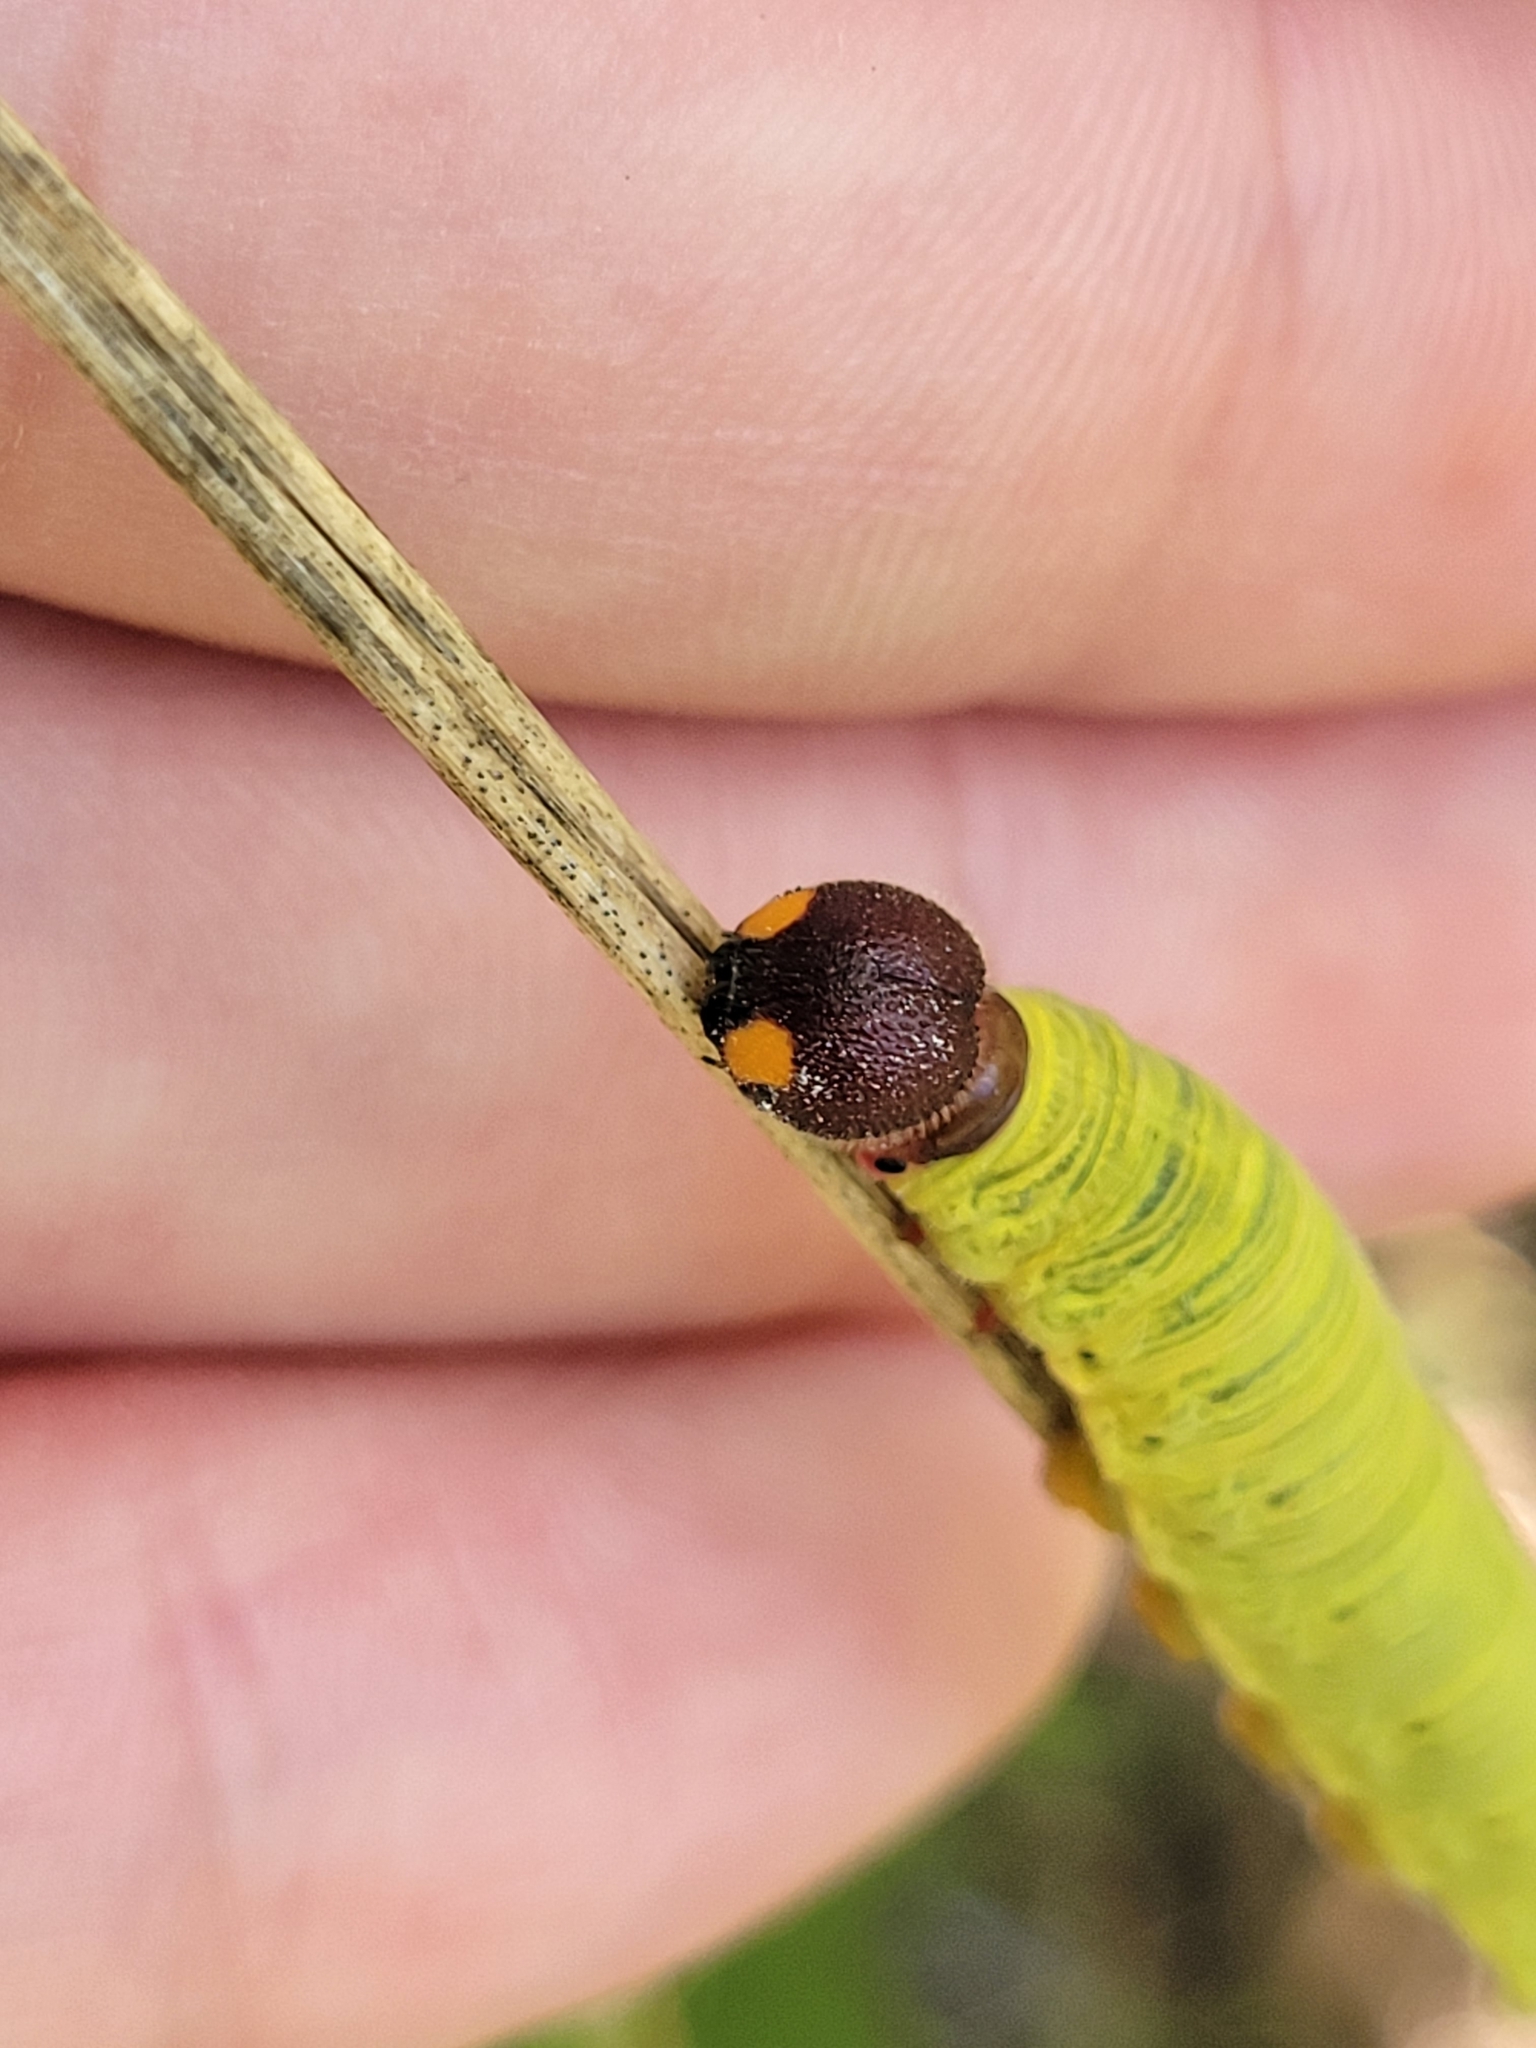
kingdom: Animalia
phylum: Arthropoda
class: Insecta
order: Lepidoptera
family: Hesperiidae
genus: Epargyreus
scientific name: Epargyreus clarus
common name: Silver-spotted skipper
